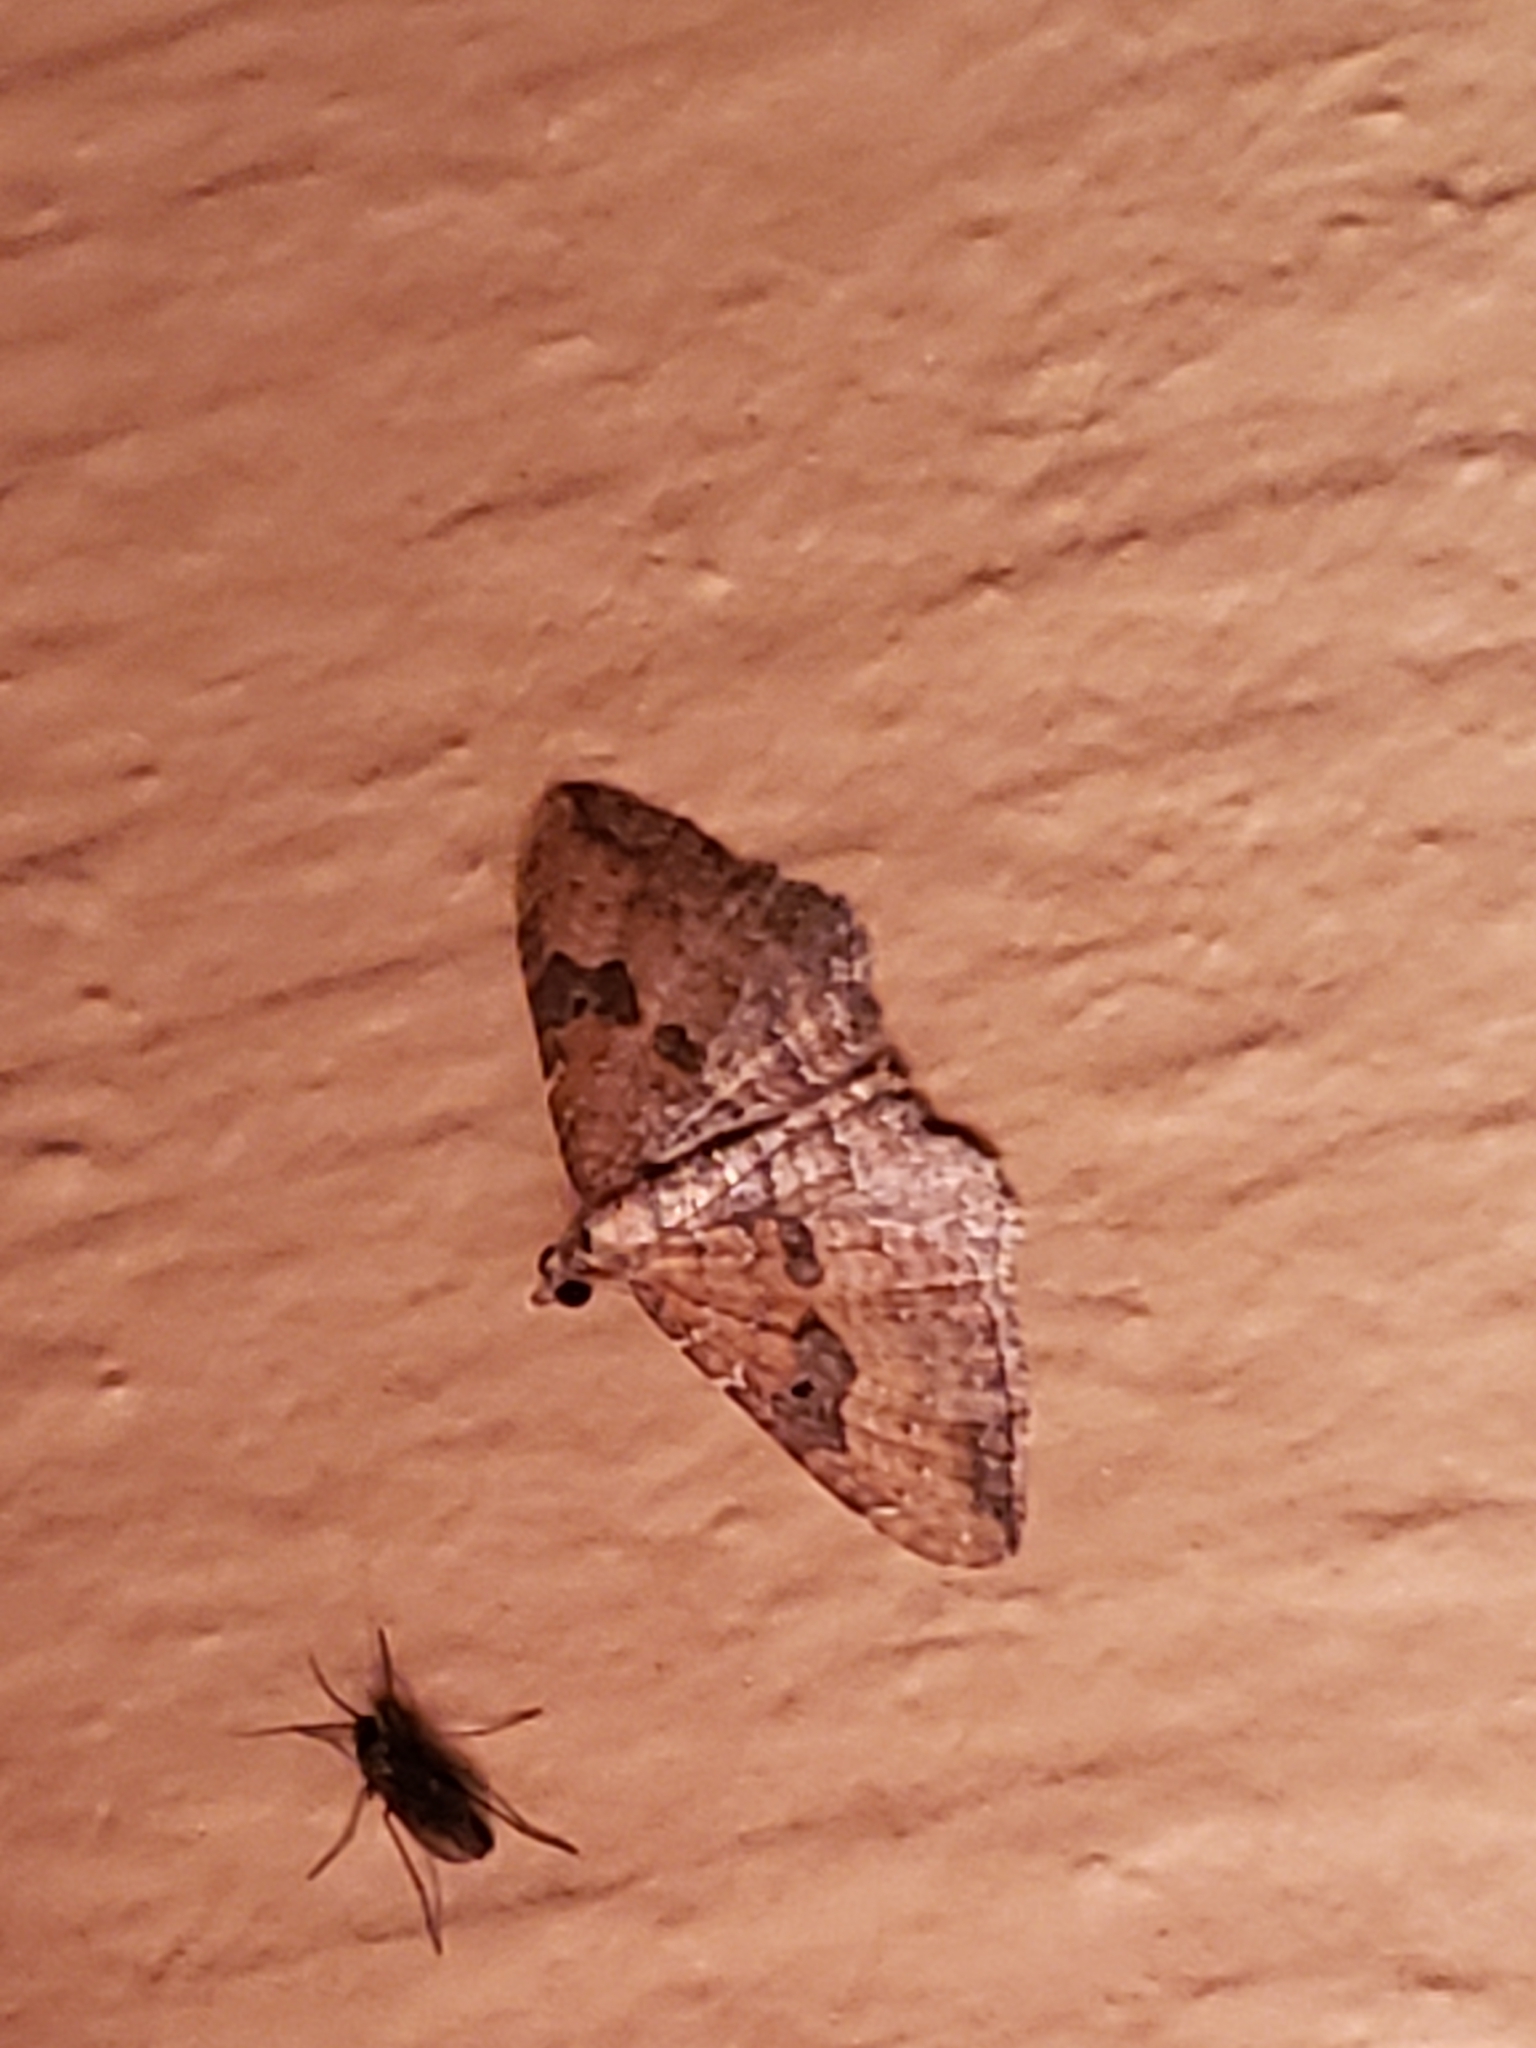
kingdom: Animalia
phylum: Arthropoda
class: Insecta
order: Lepidoptera
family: Geometridae
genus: Orthonama
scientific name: Orthonama obstipata
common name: The gem
